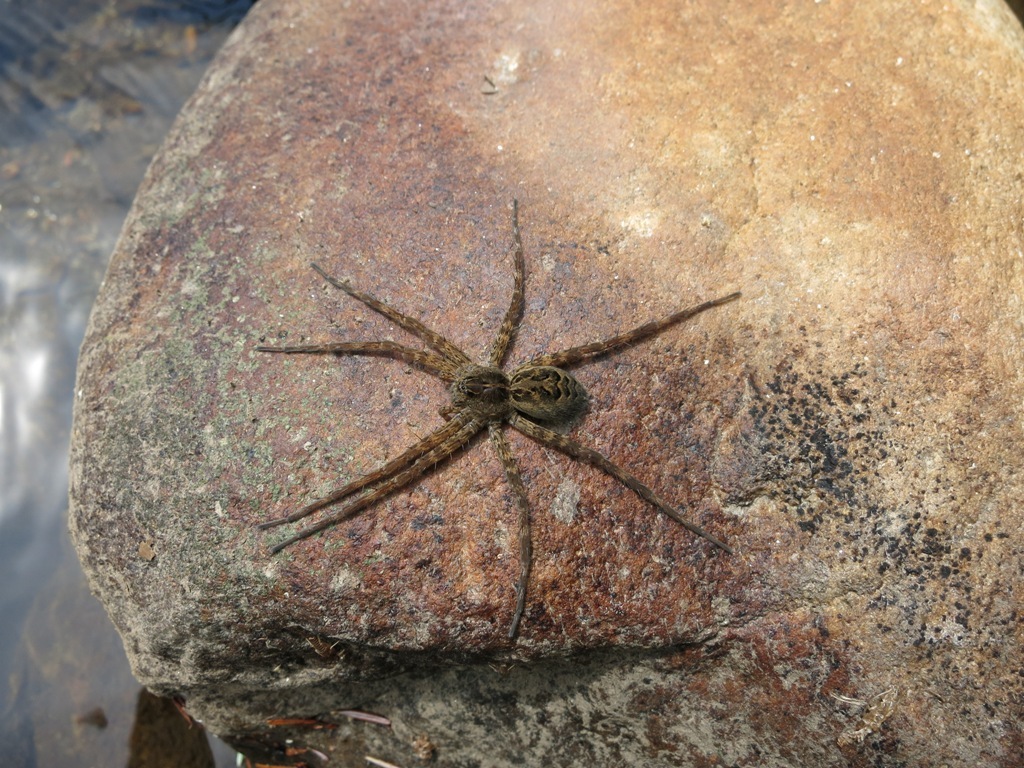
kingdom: Animalia
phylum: Arthropoda
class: Arachnida
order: Araneae
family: Pisauridae
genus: Dolomedes
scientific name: Dolomedes scriptus
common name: Striped fishing spider
